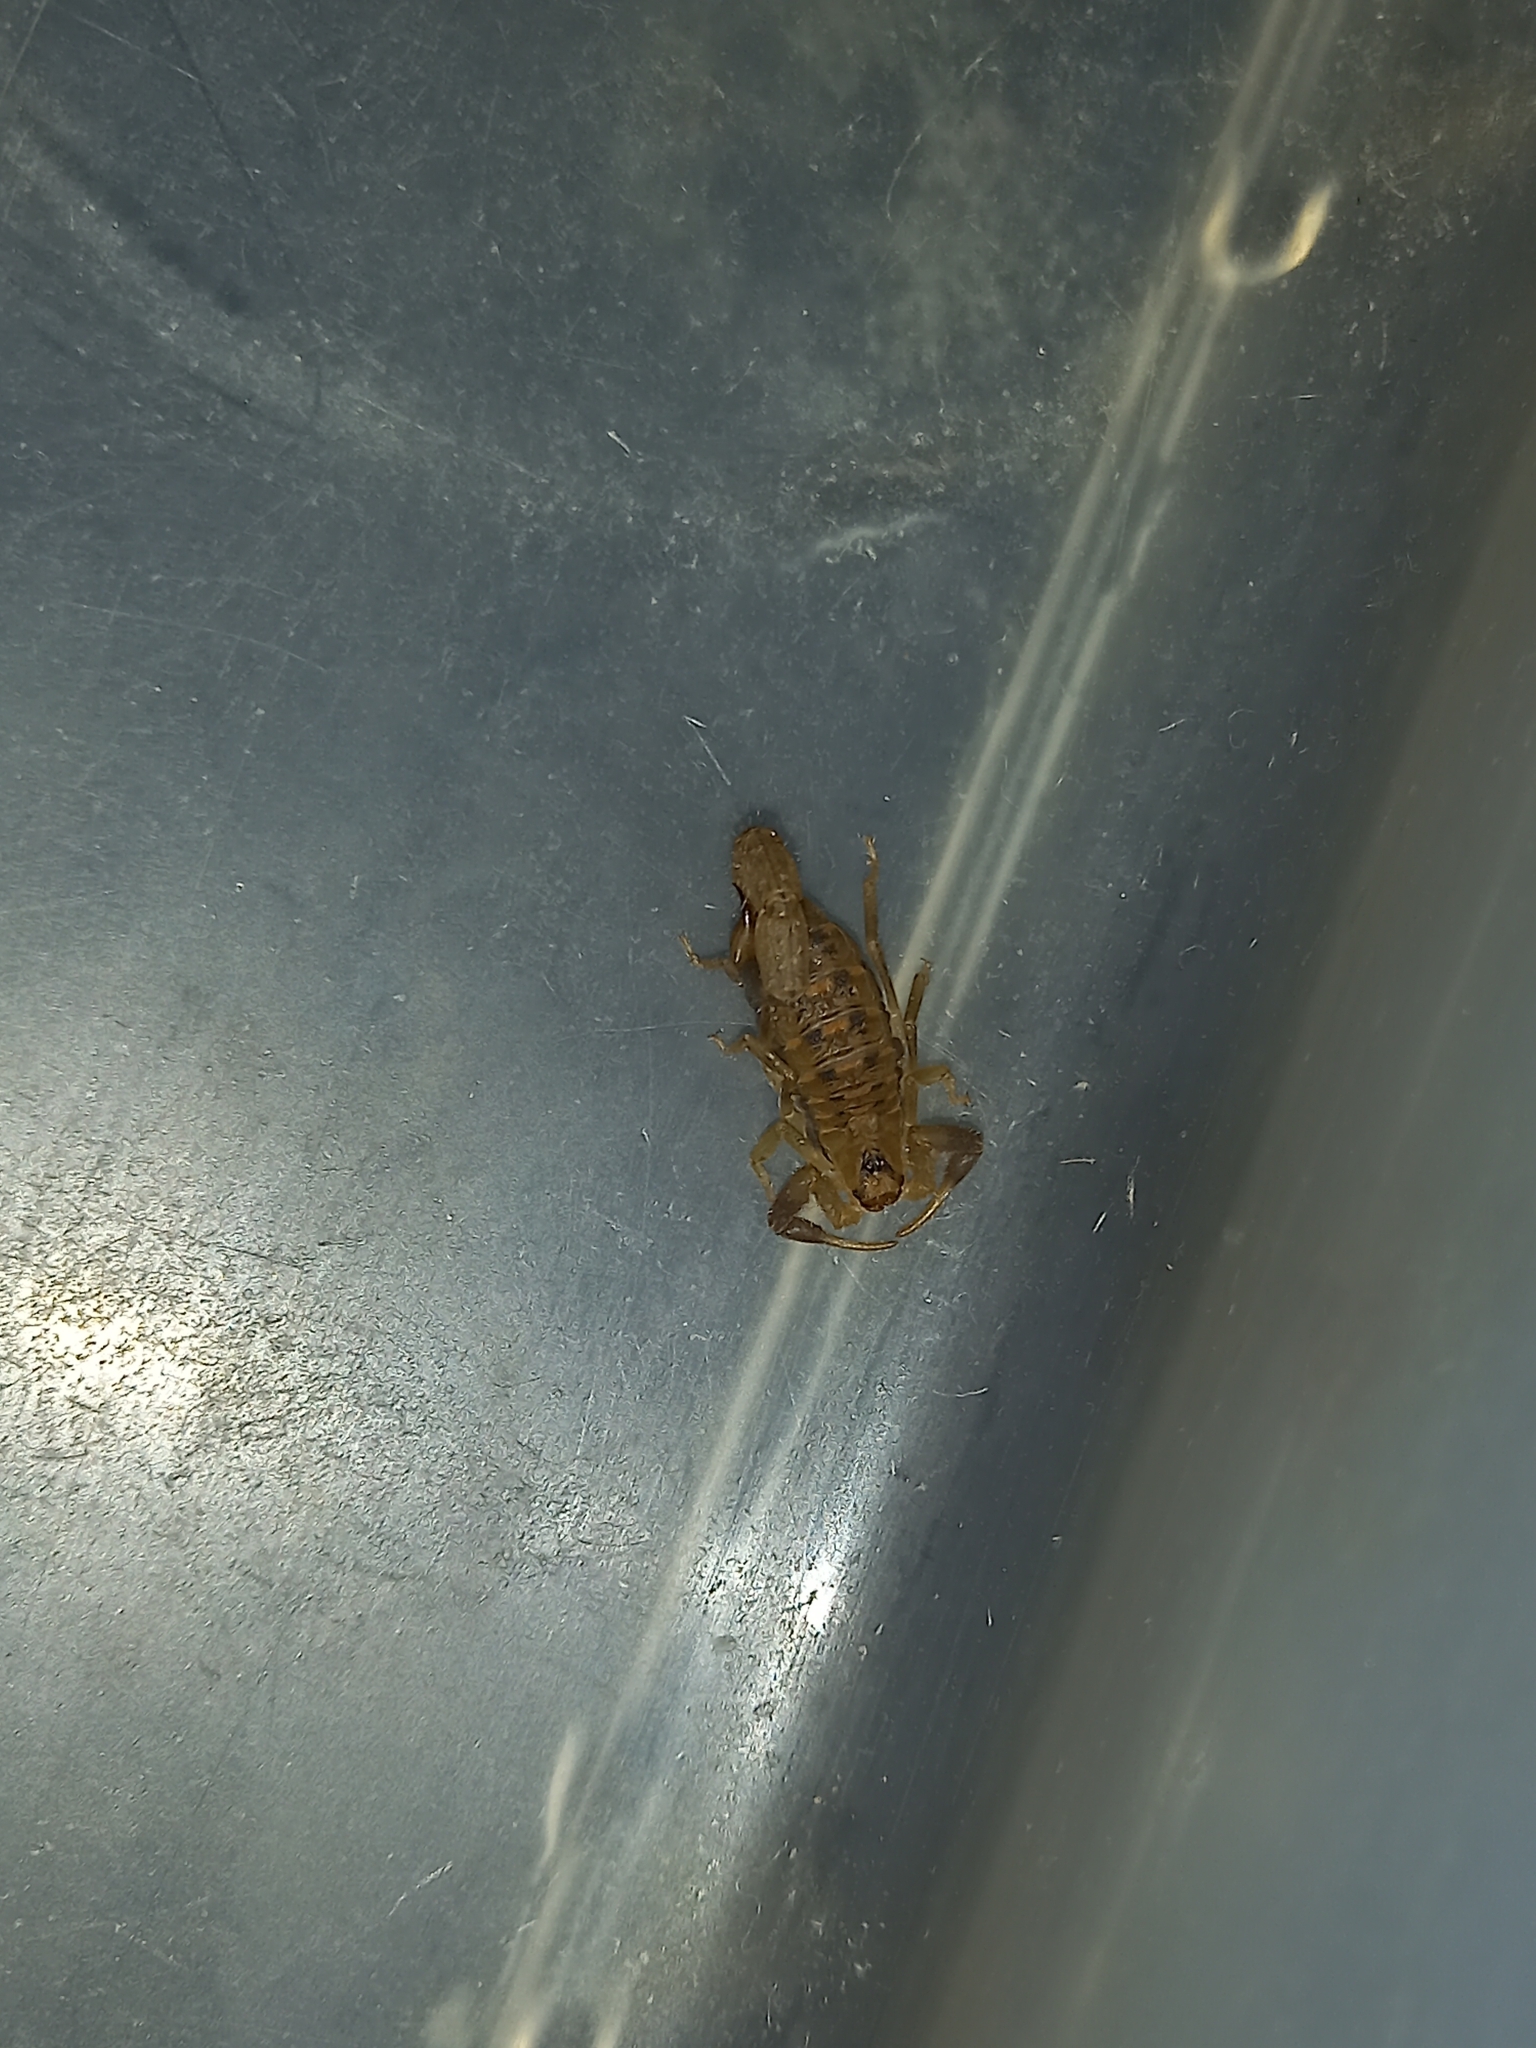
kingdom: Animalia
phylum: Arthropoda
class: Arachnida
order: Scorpiones
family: Buthidae
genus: Uroplectes
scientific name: Uroplectes formosus
